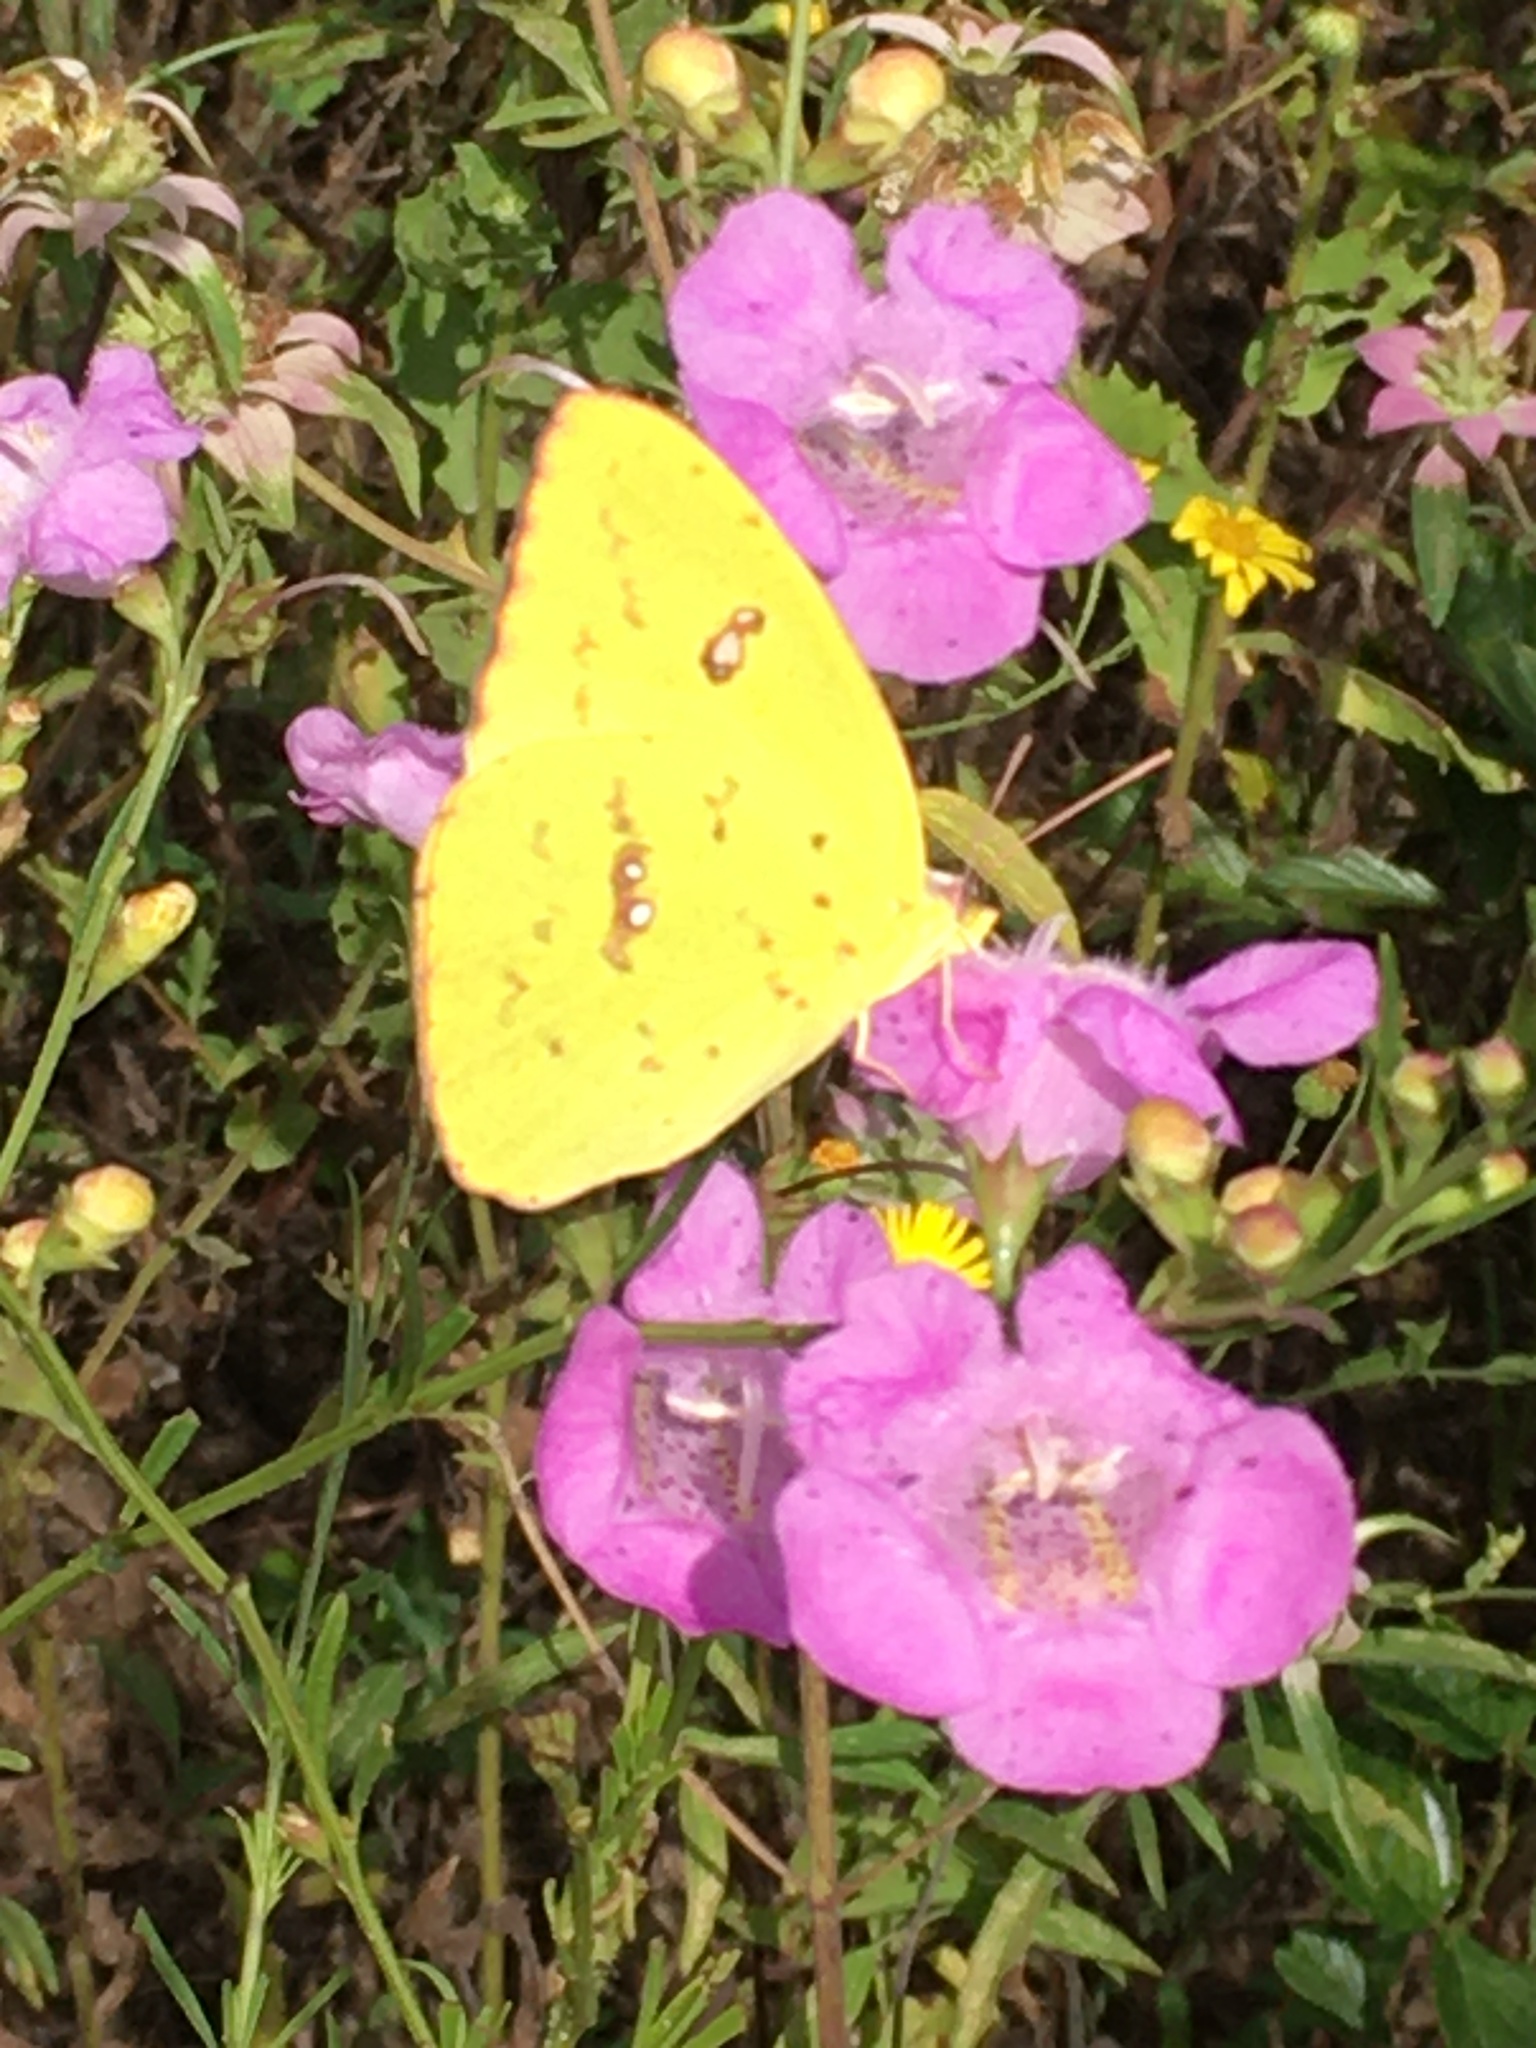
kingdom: Animalia
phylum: Arthropoda
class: Insecta
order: Lepidoptera
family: Pieridae
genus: Phoebis
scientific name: Phoebis sennae
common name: Cloudless sulphur
